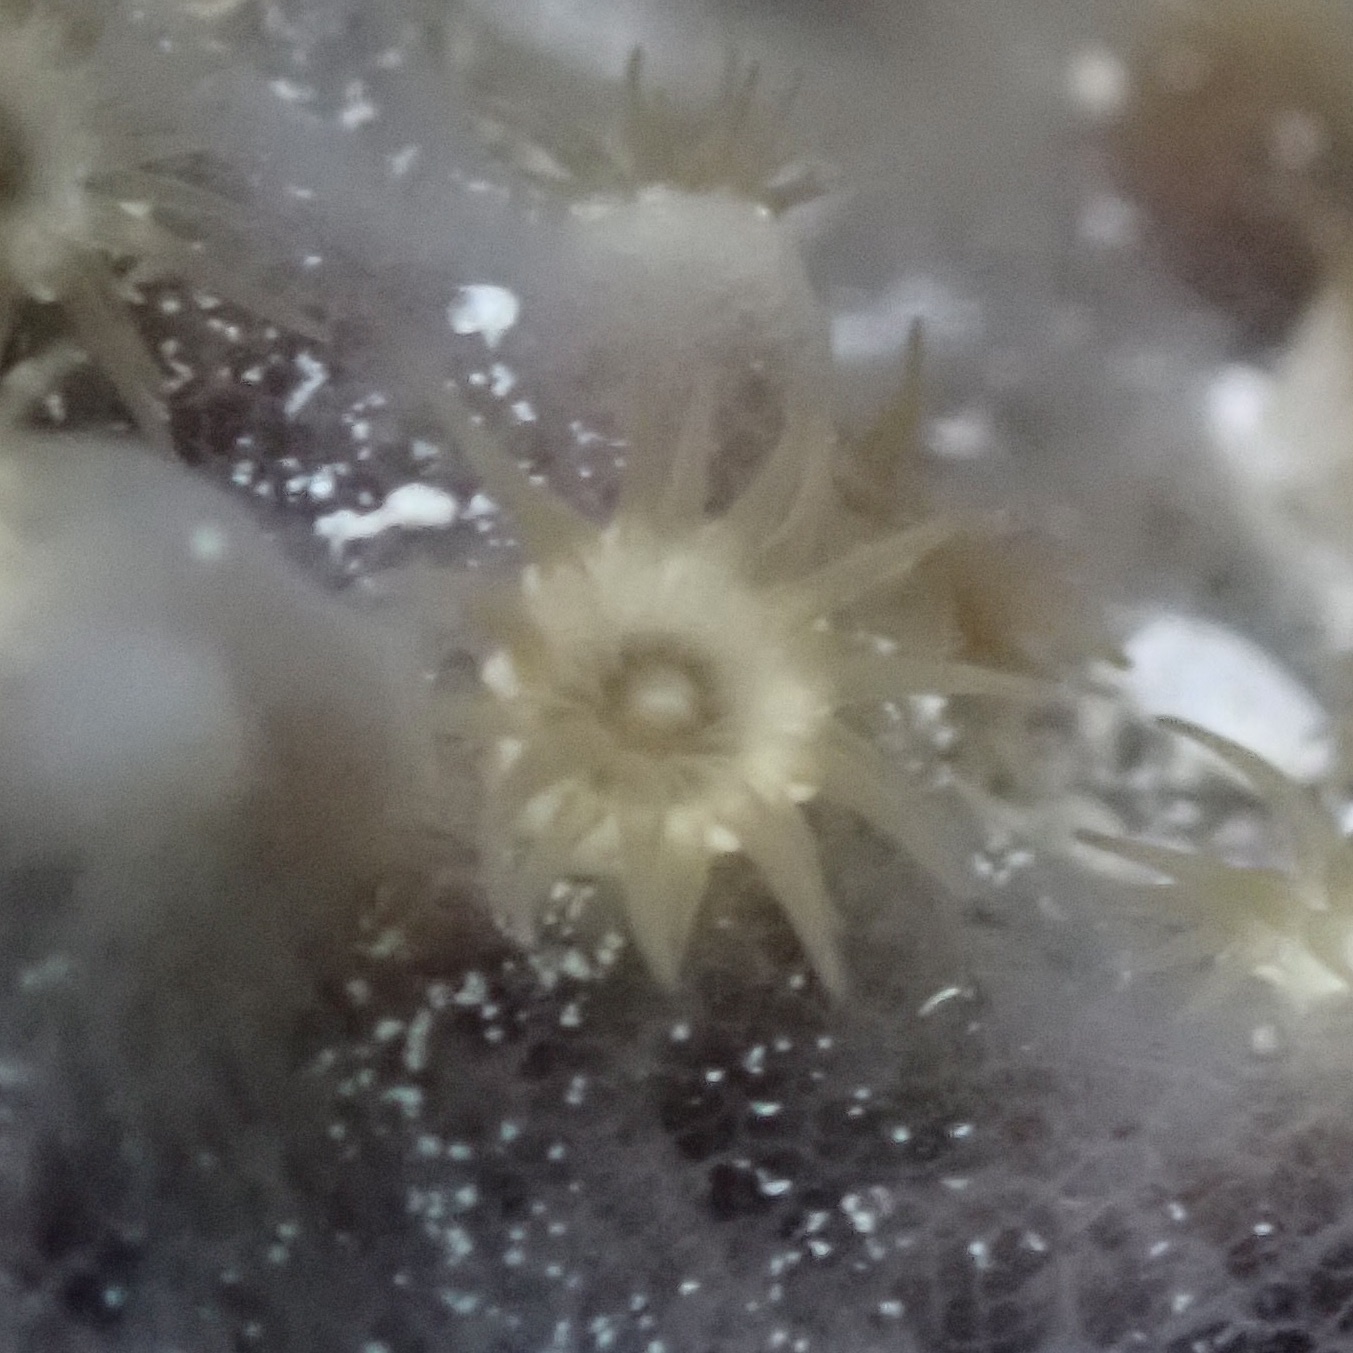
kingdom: Animalia
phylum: Cnidaria
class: Anthozoa
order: Zoantharia
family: Parazoanthidae
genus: Umimayanthus
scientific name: Umimayanthus parasiticus
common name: Sponge zoanthid
